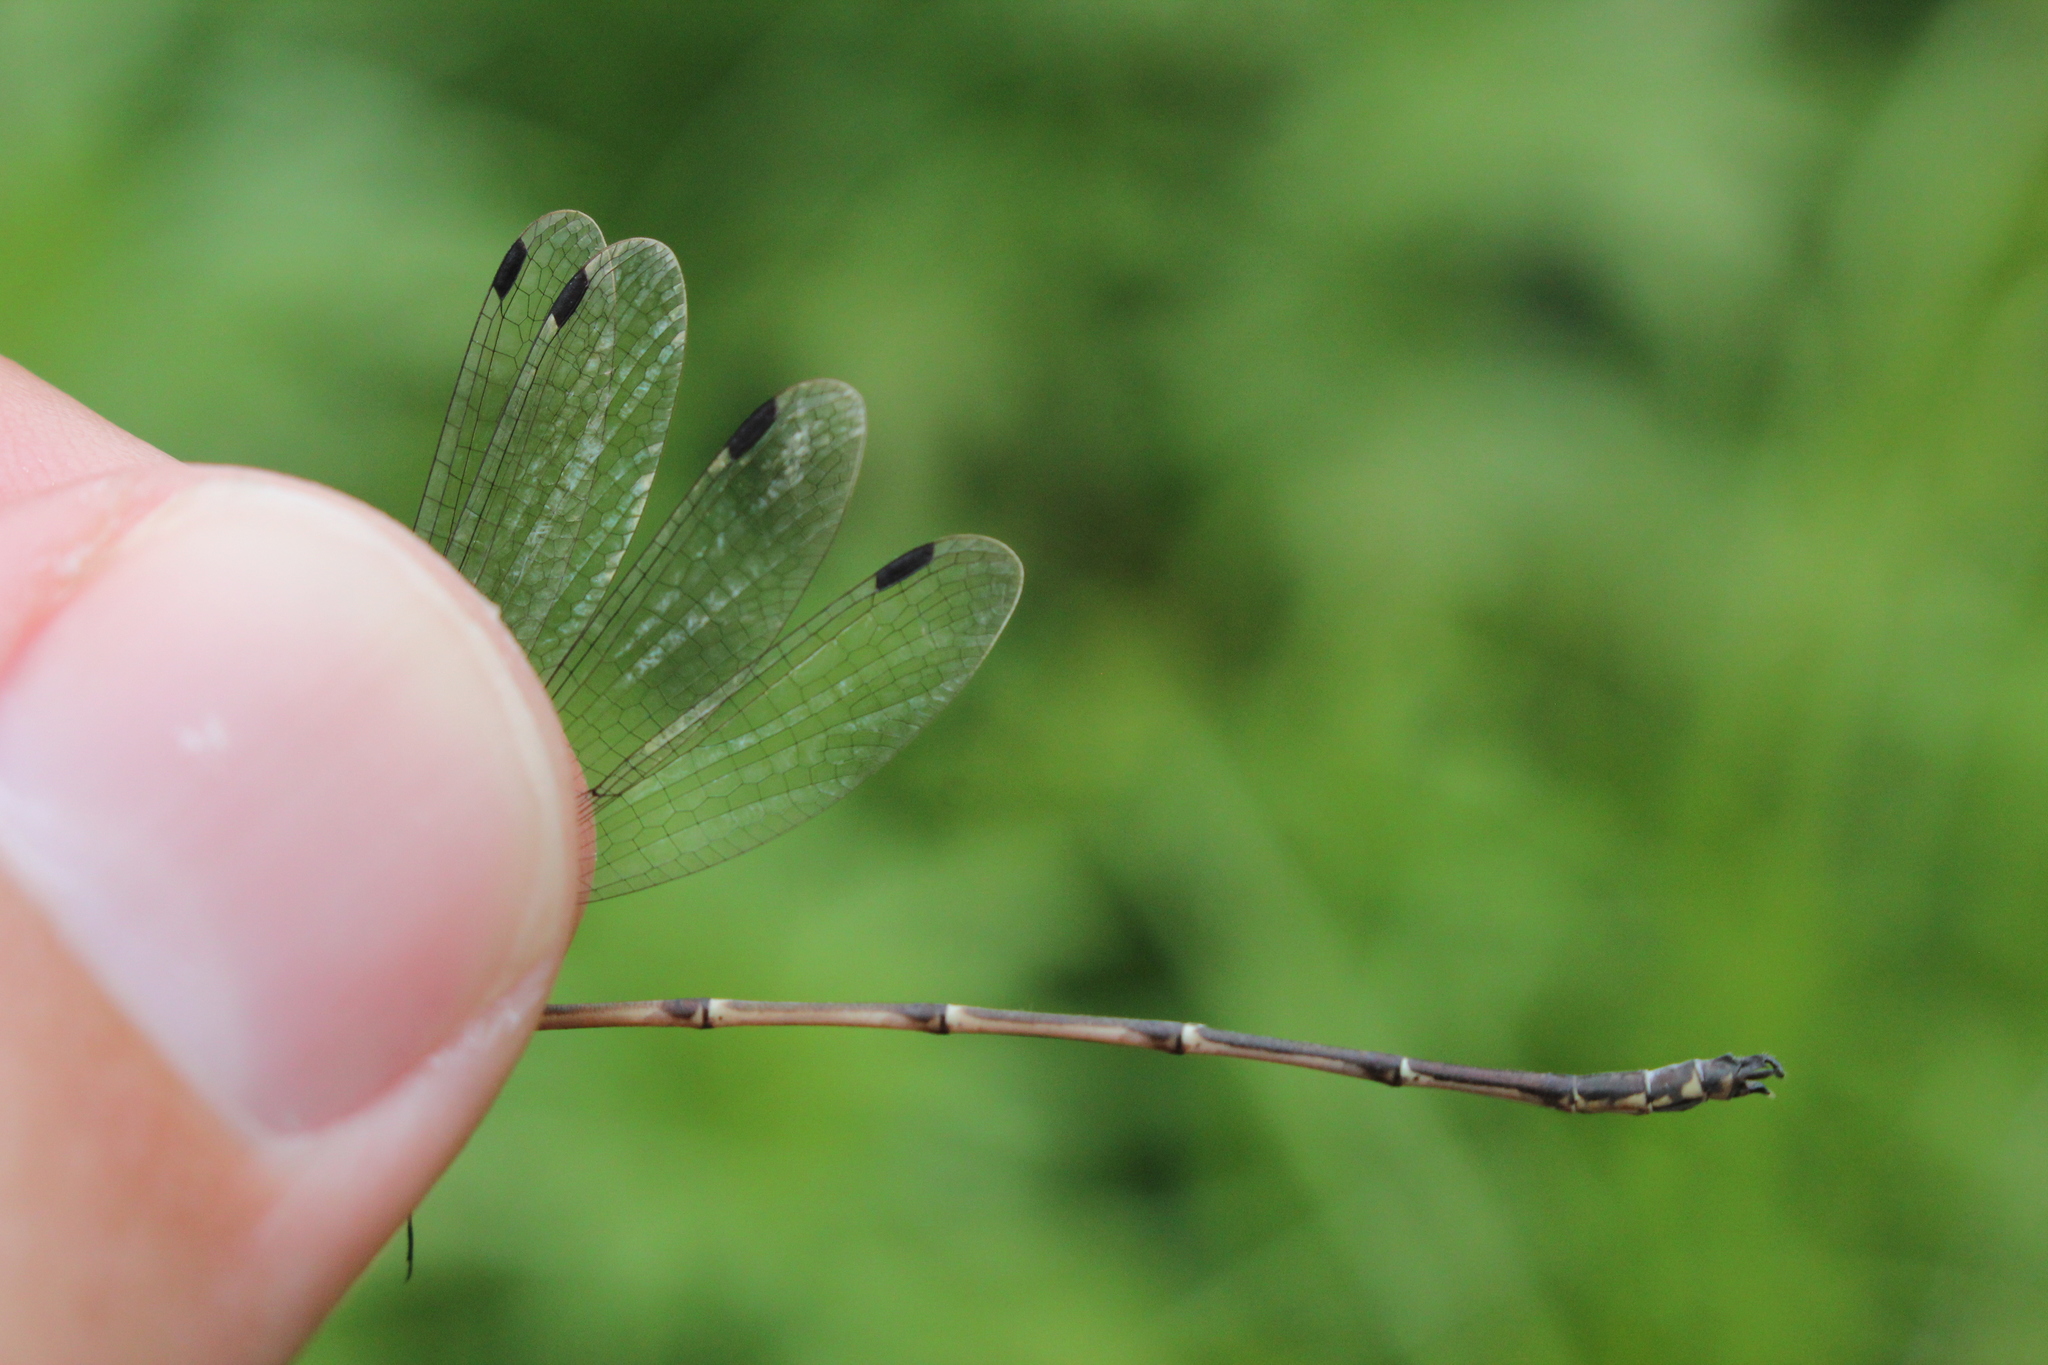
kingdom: Animalia
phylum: Arthropoda
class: Insecta
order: Odonata
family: Lestidae
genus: Lestes
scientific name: Lestes rectangularis
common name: Slender spreadwing
